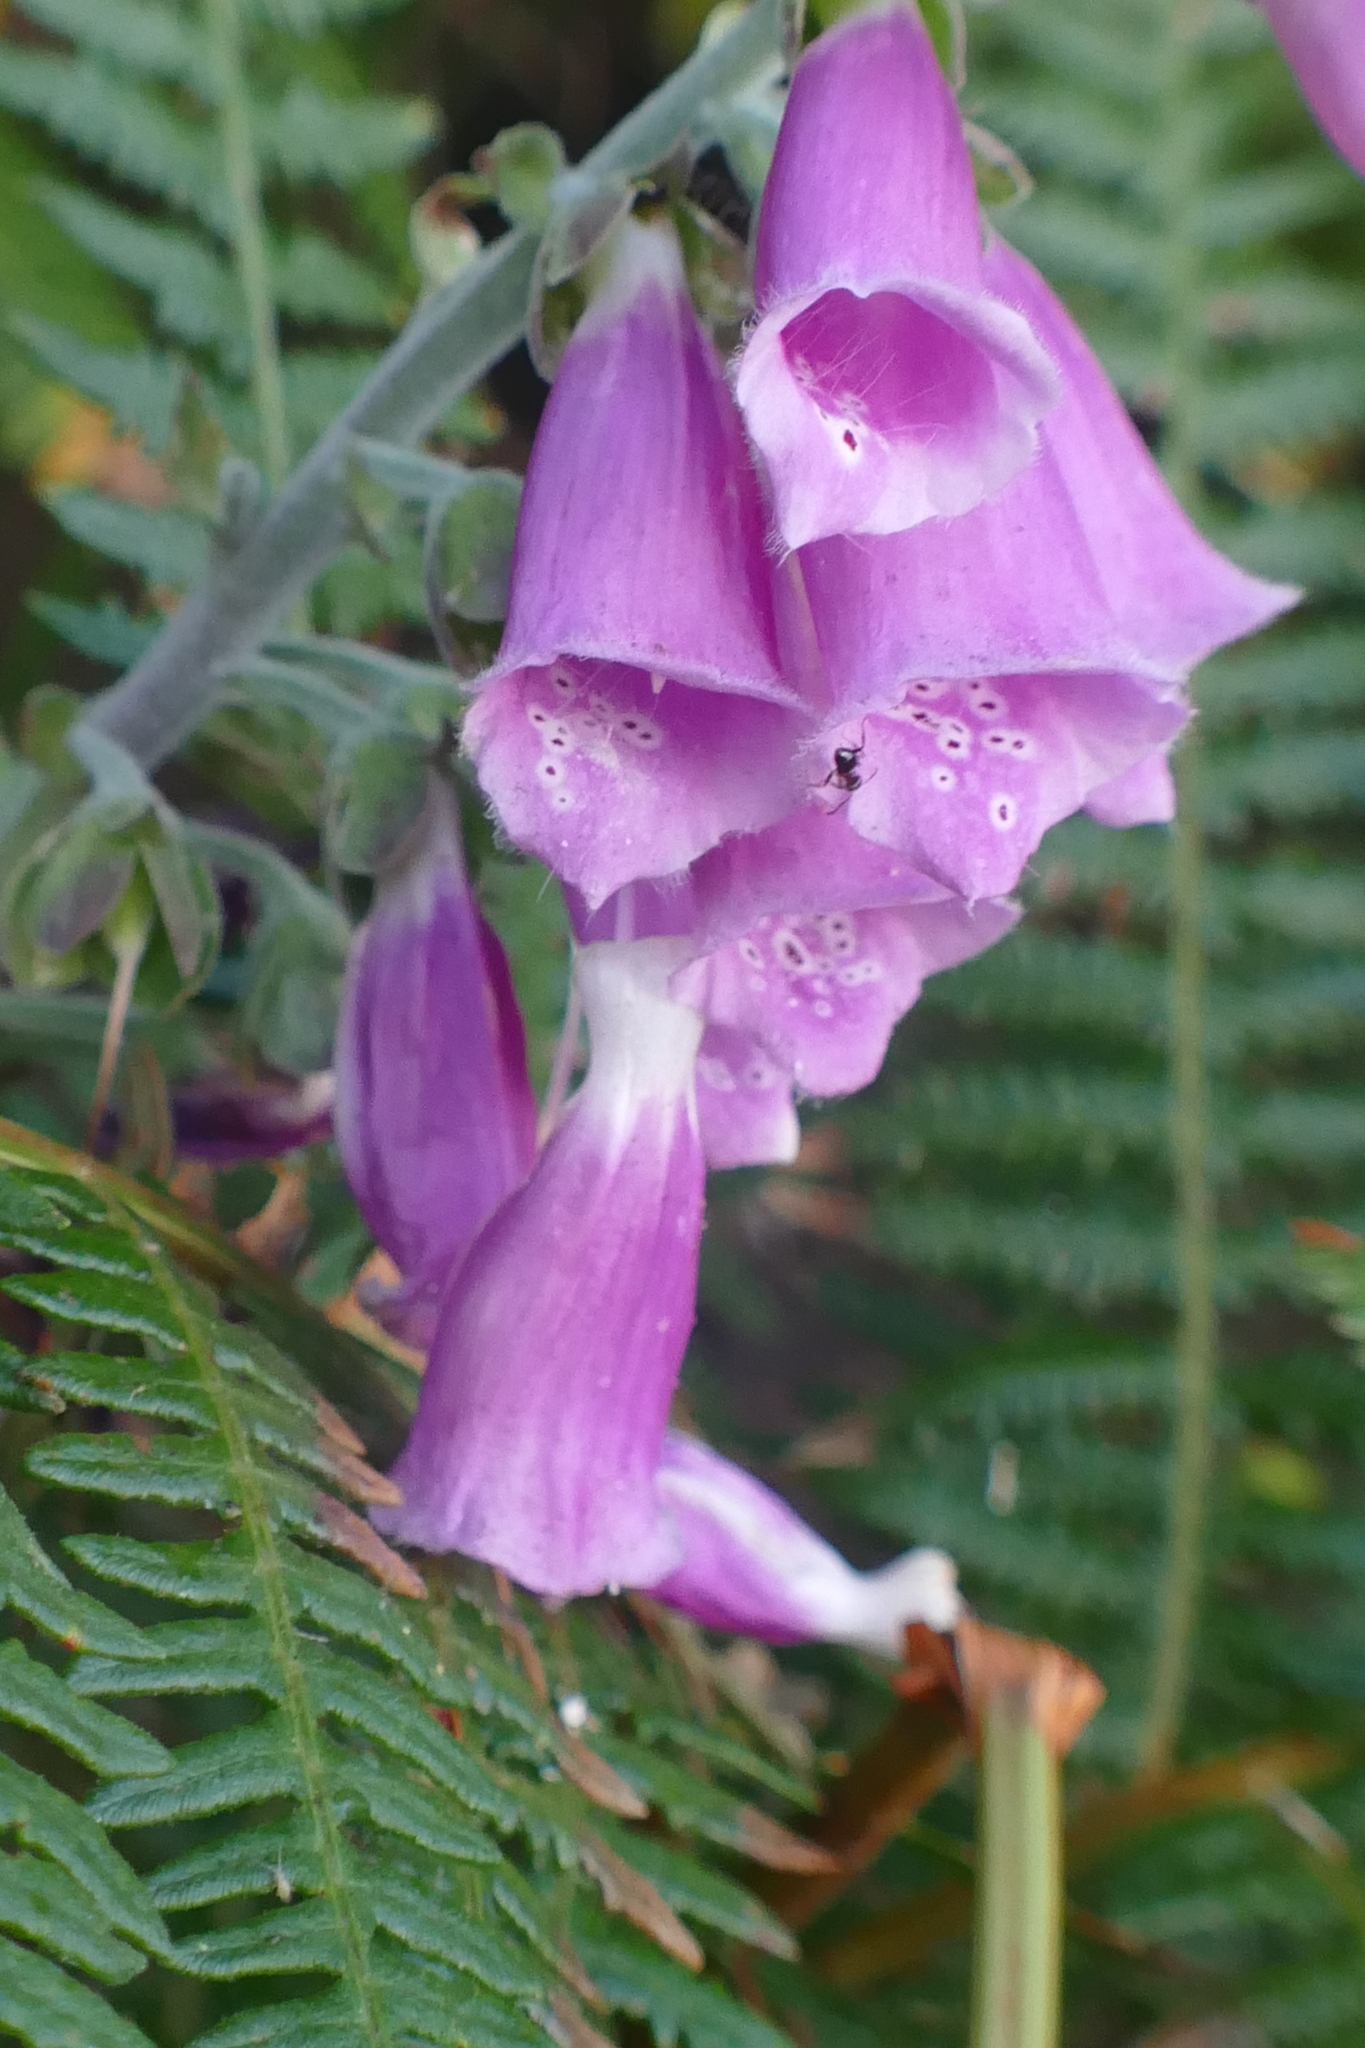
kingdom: Plantae
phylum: Tracheophyta
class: Magnoliopsida
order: Lamiales
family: Plantaginaceae
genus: Digitalis
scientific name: Digitalis purpurea
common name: Foxglove
